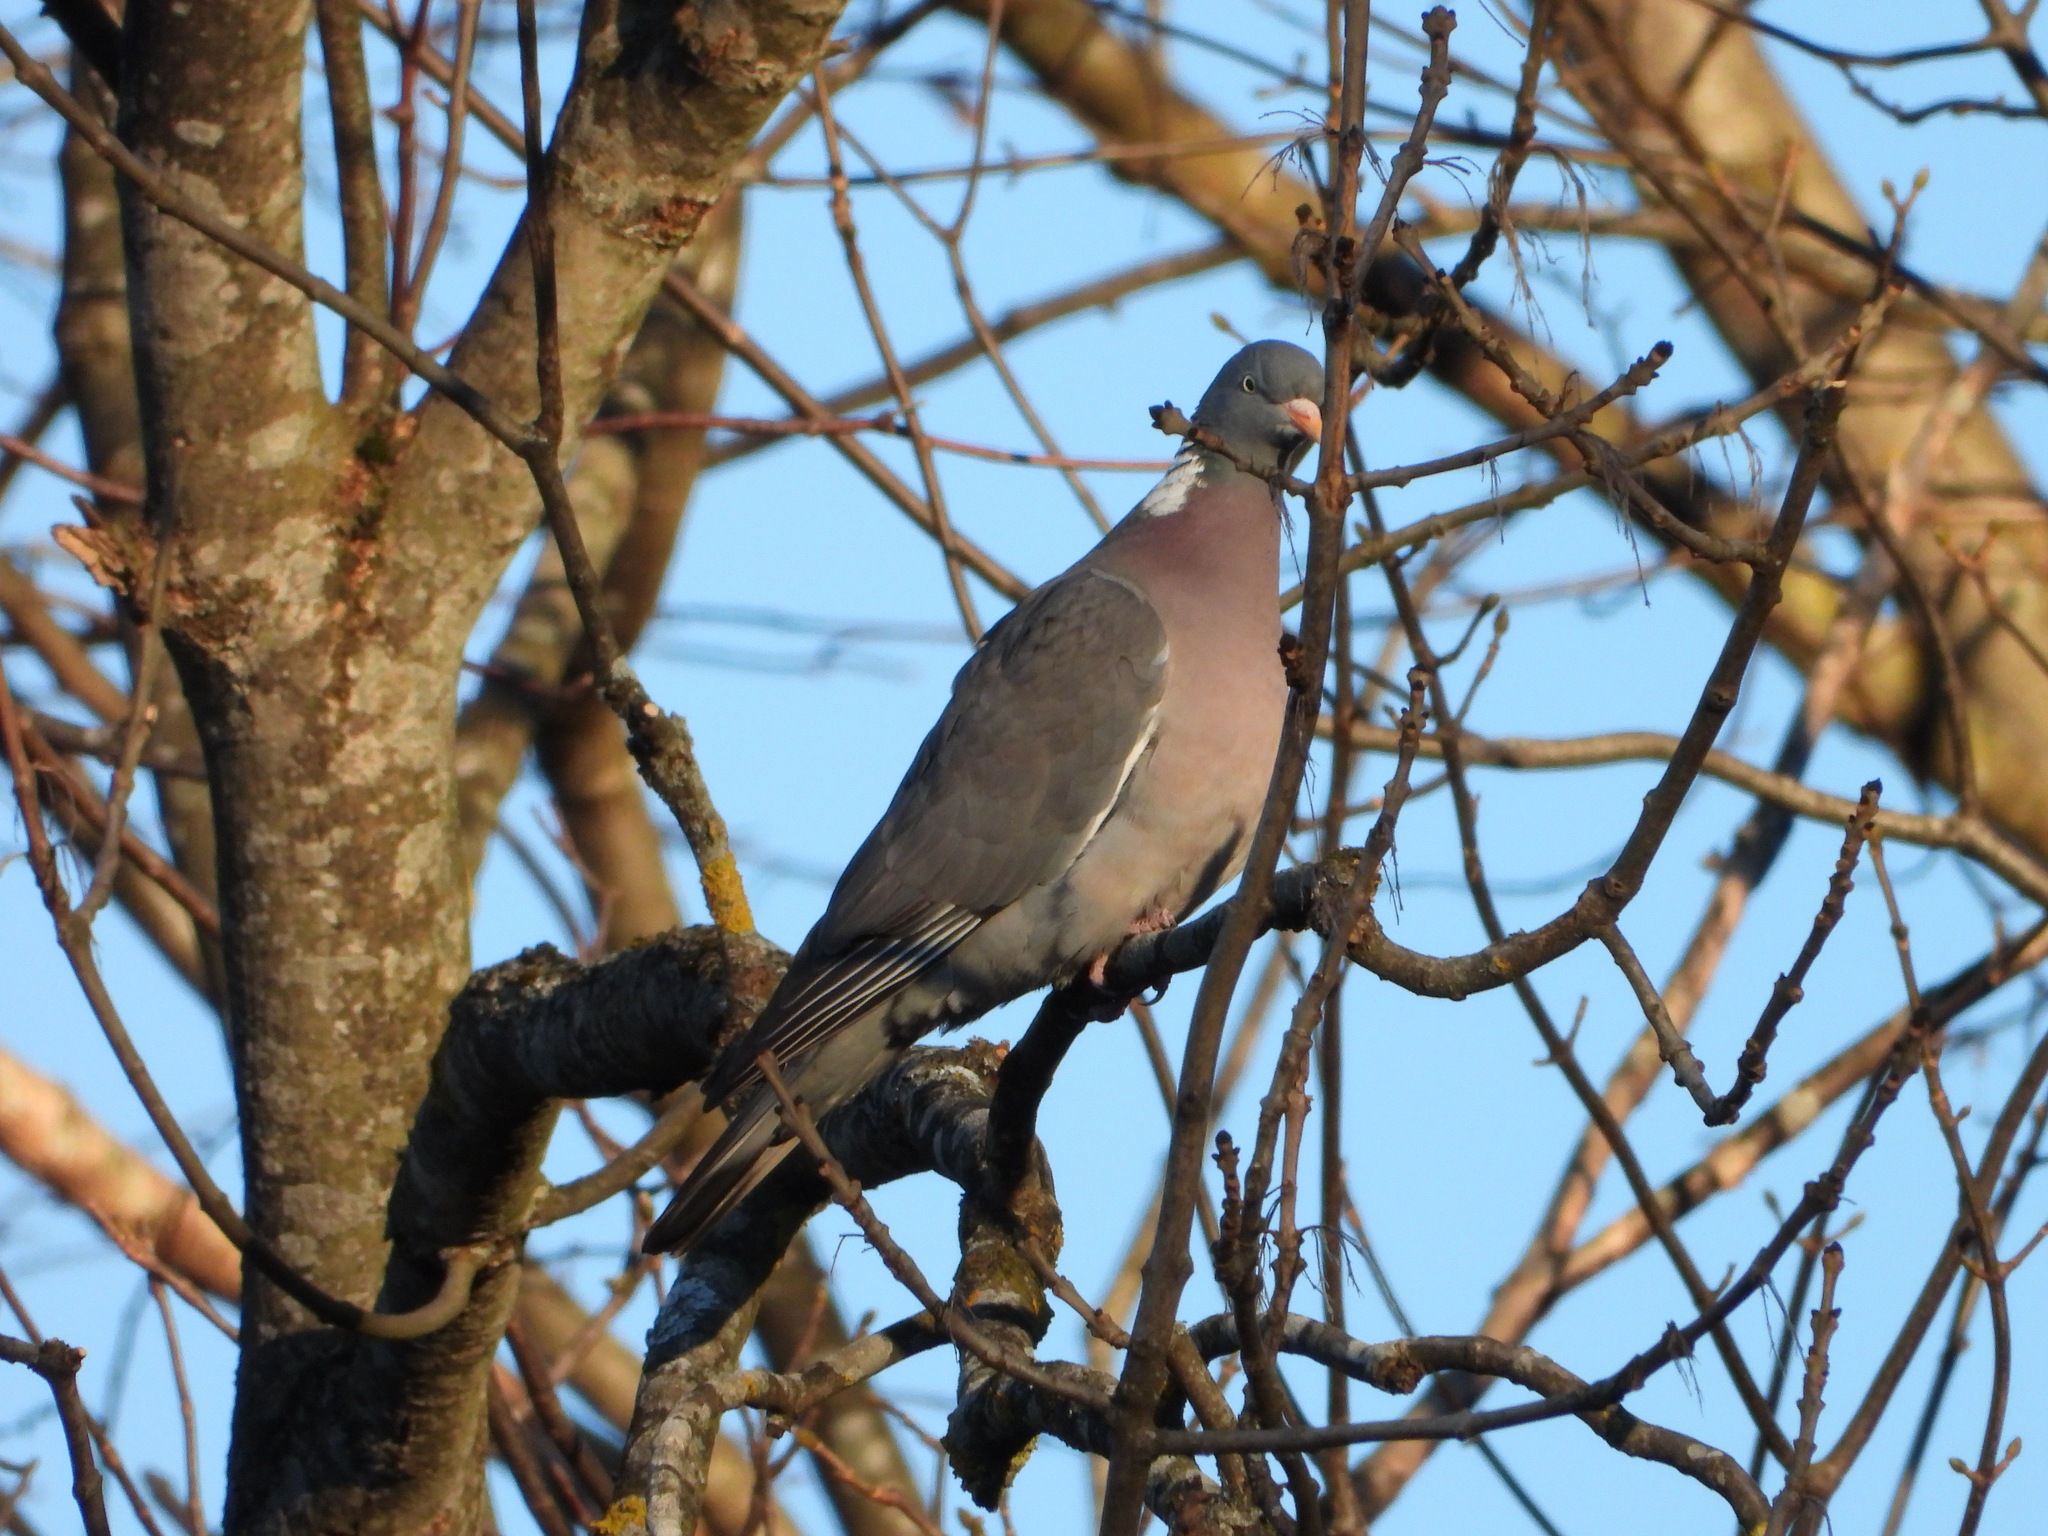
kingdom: Animalia
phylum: Chordata
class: Aves
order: Columbiformes
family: Columbidae
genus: Columba
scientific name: Columba palumbus
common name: Common wood pigeon
